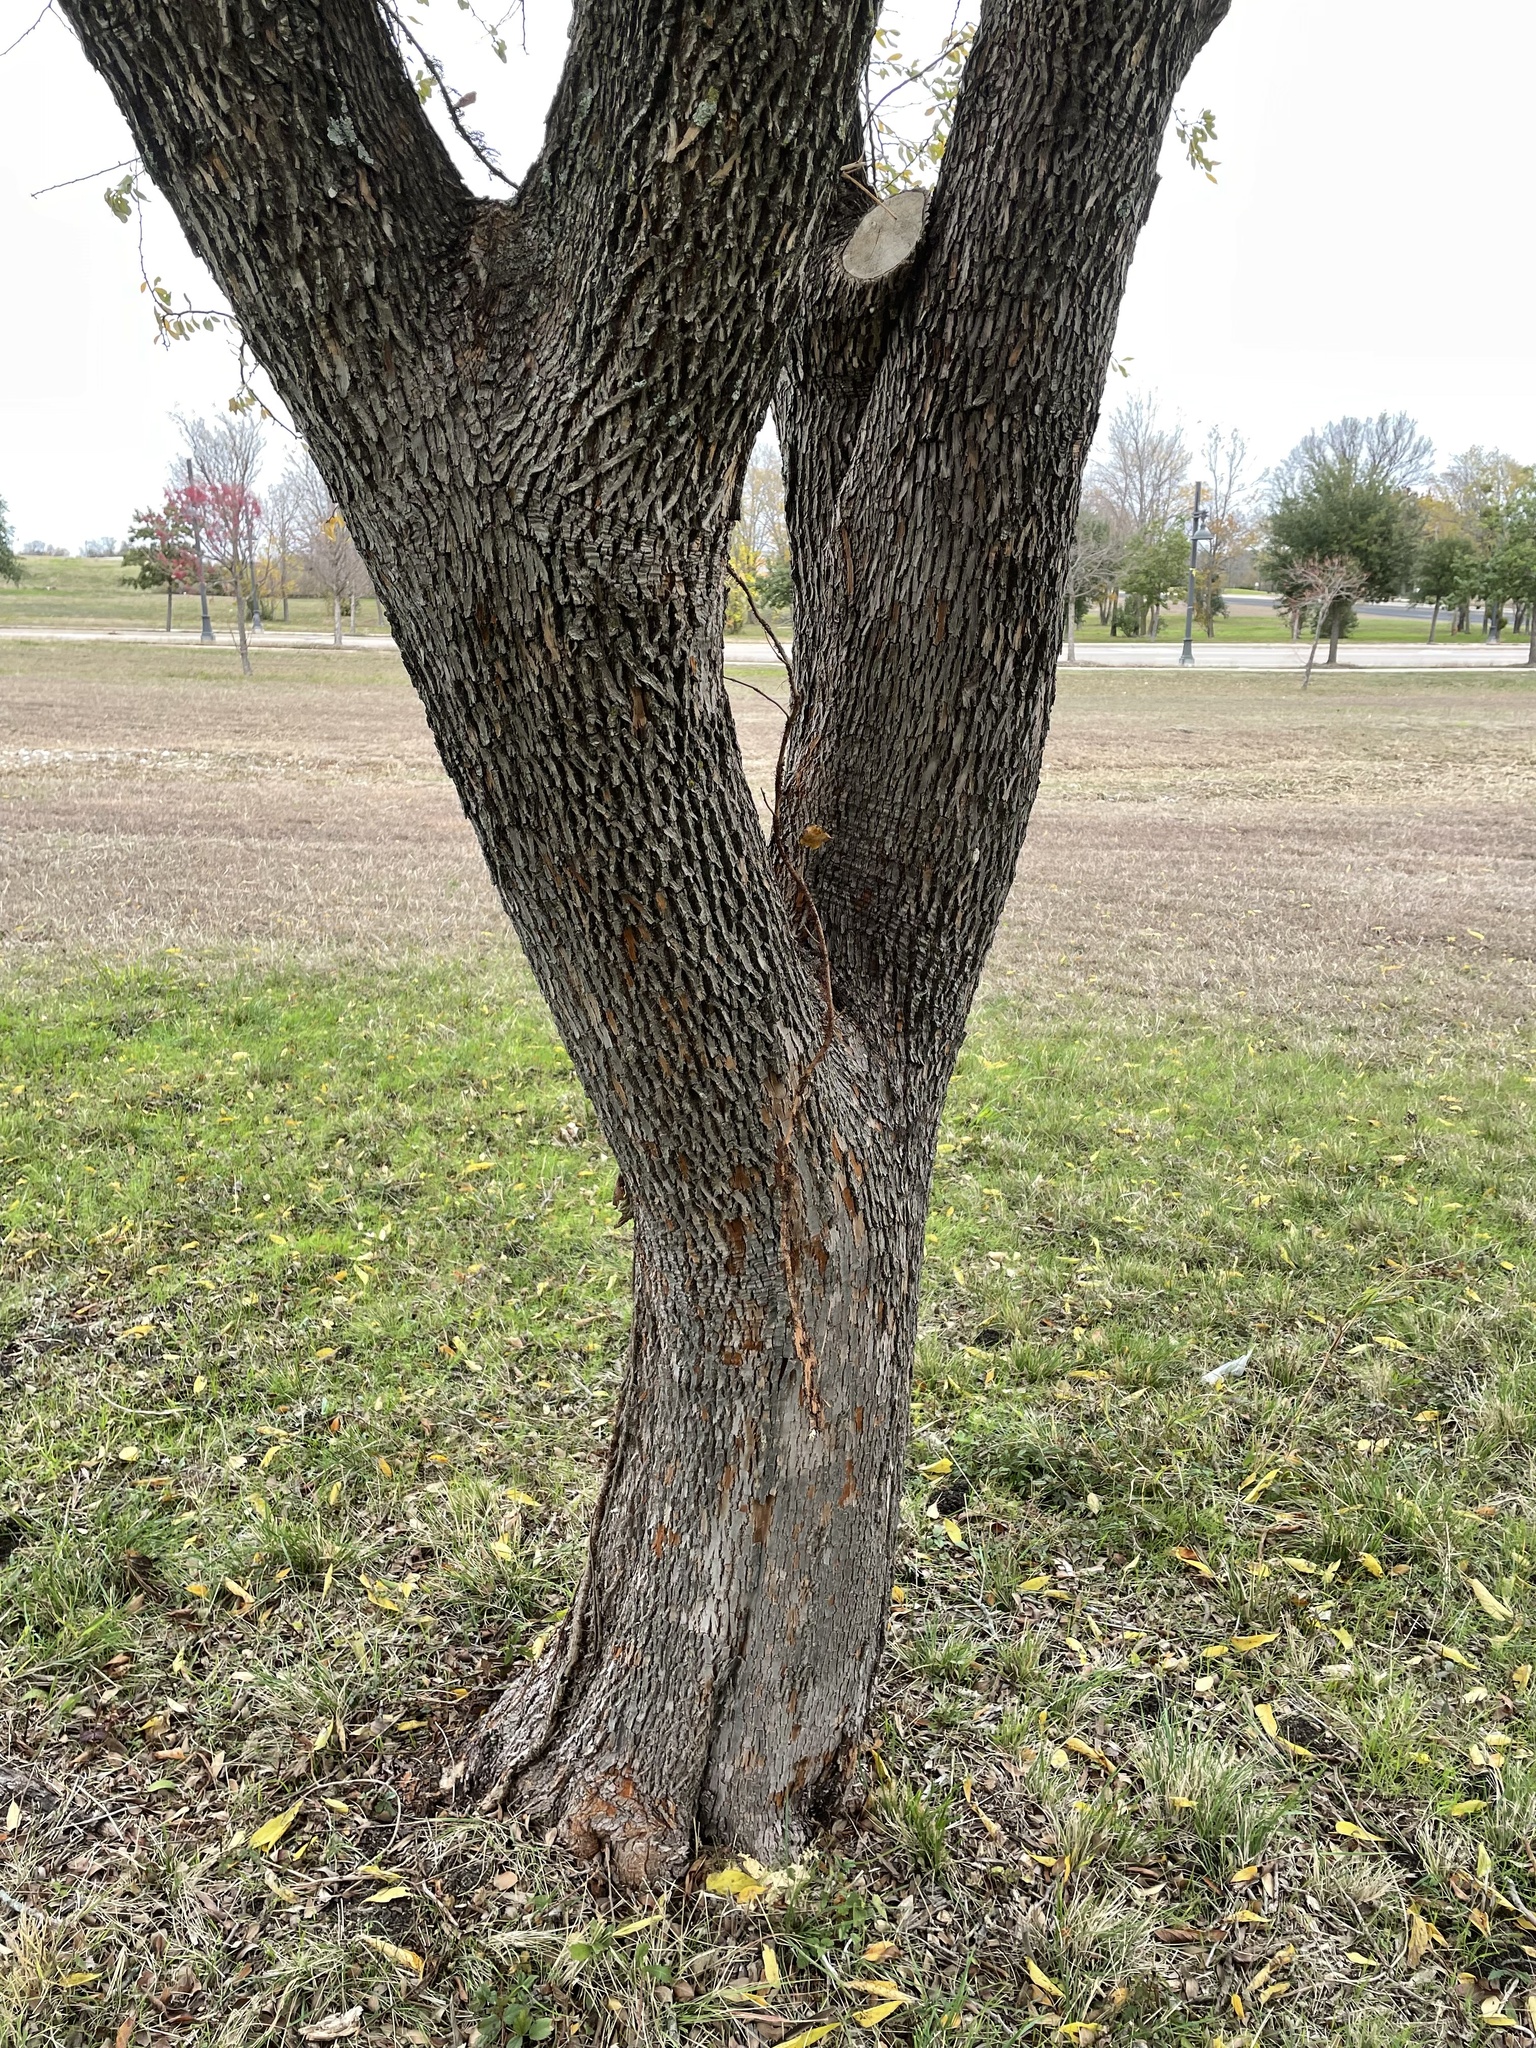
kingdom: Plantae
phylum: Tracheophyta
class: Magnoliopsida
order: Ericales
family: Sapotaceae
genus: Sideroxylon
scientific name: Sideroxylon lanuginosum
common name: Chittamwood
